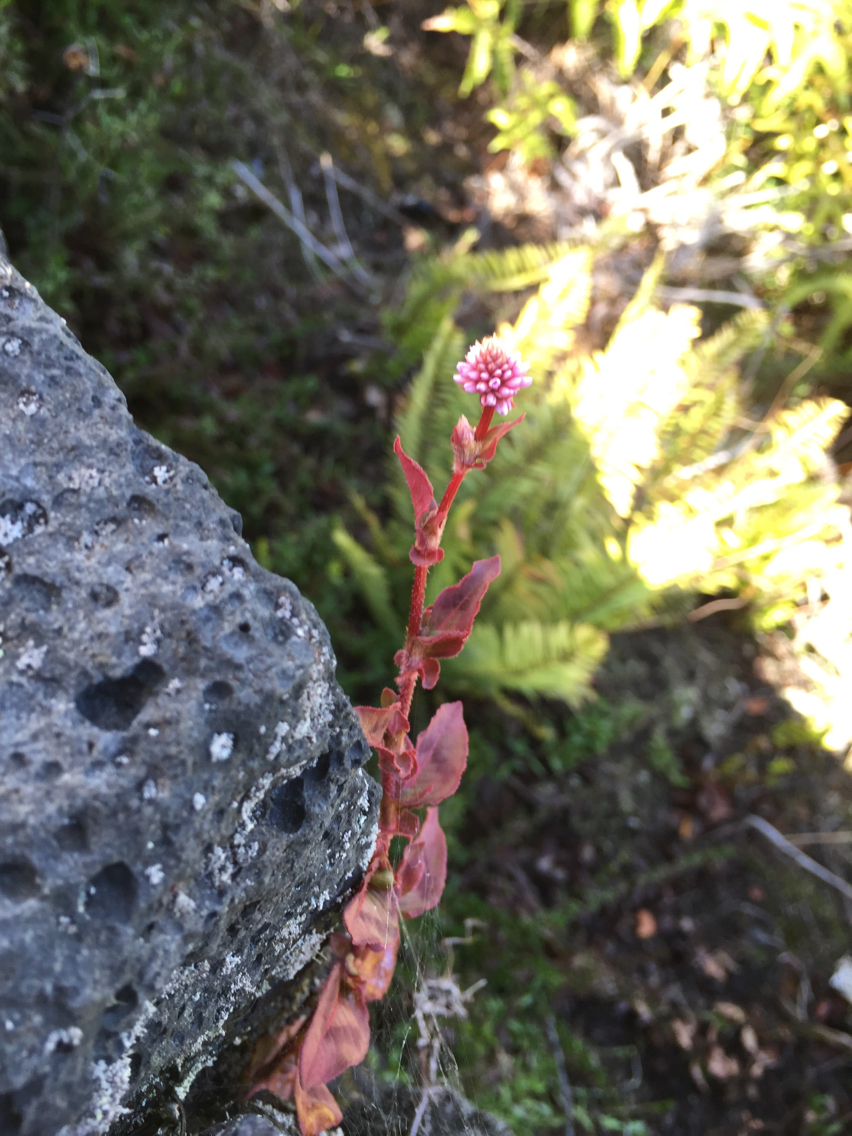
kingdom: Plantae
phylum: Tracheophyta
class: Magnoliopsida
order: Caryophyllales
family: Polygonaceae
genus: Persicaria
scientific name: Persicaria capitata
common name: Pinkhead smartweed
